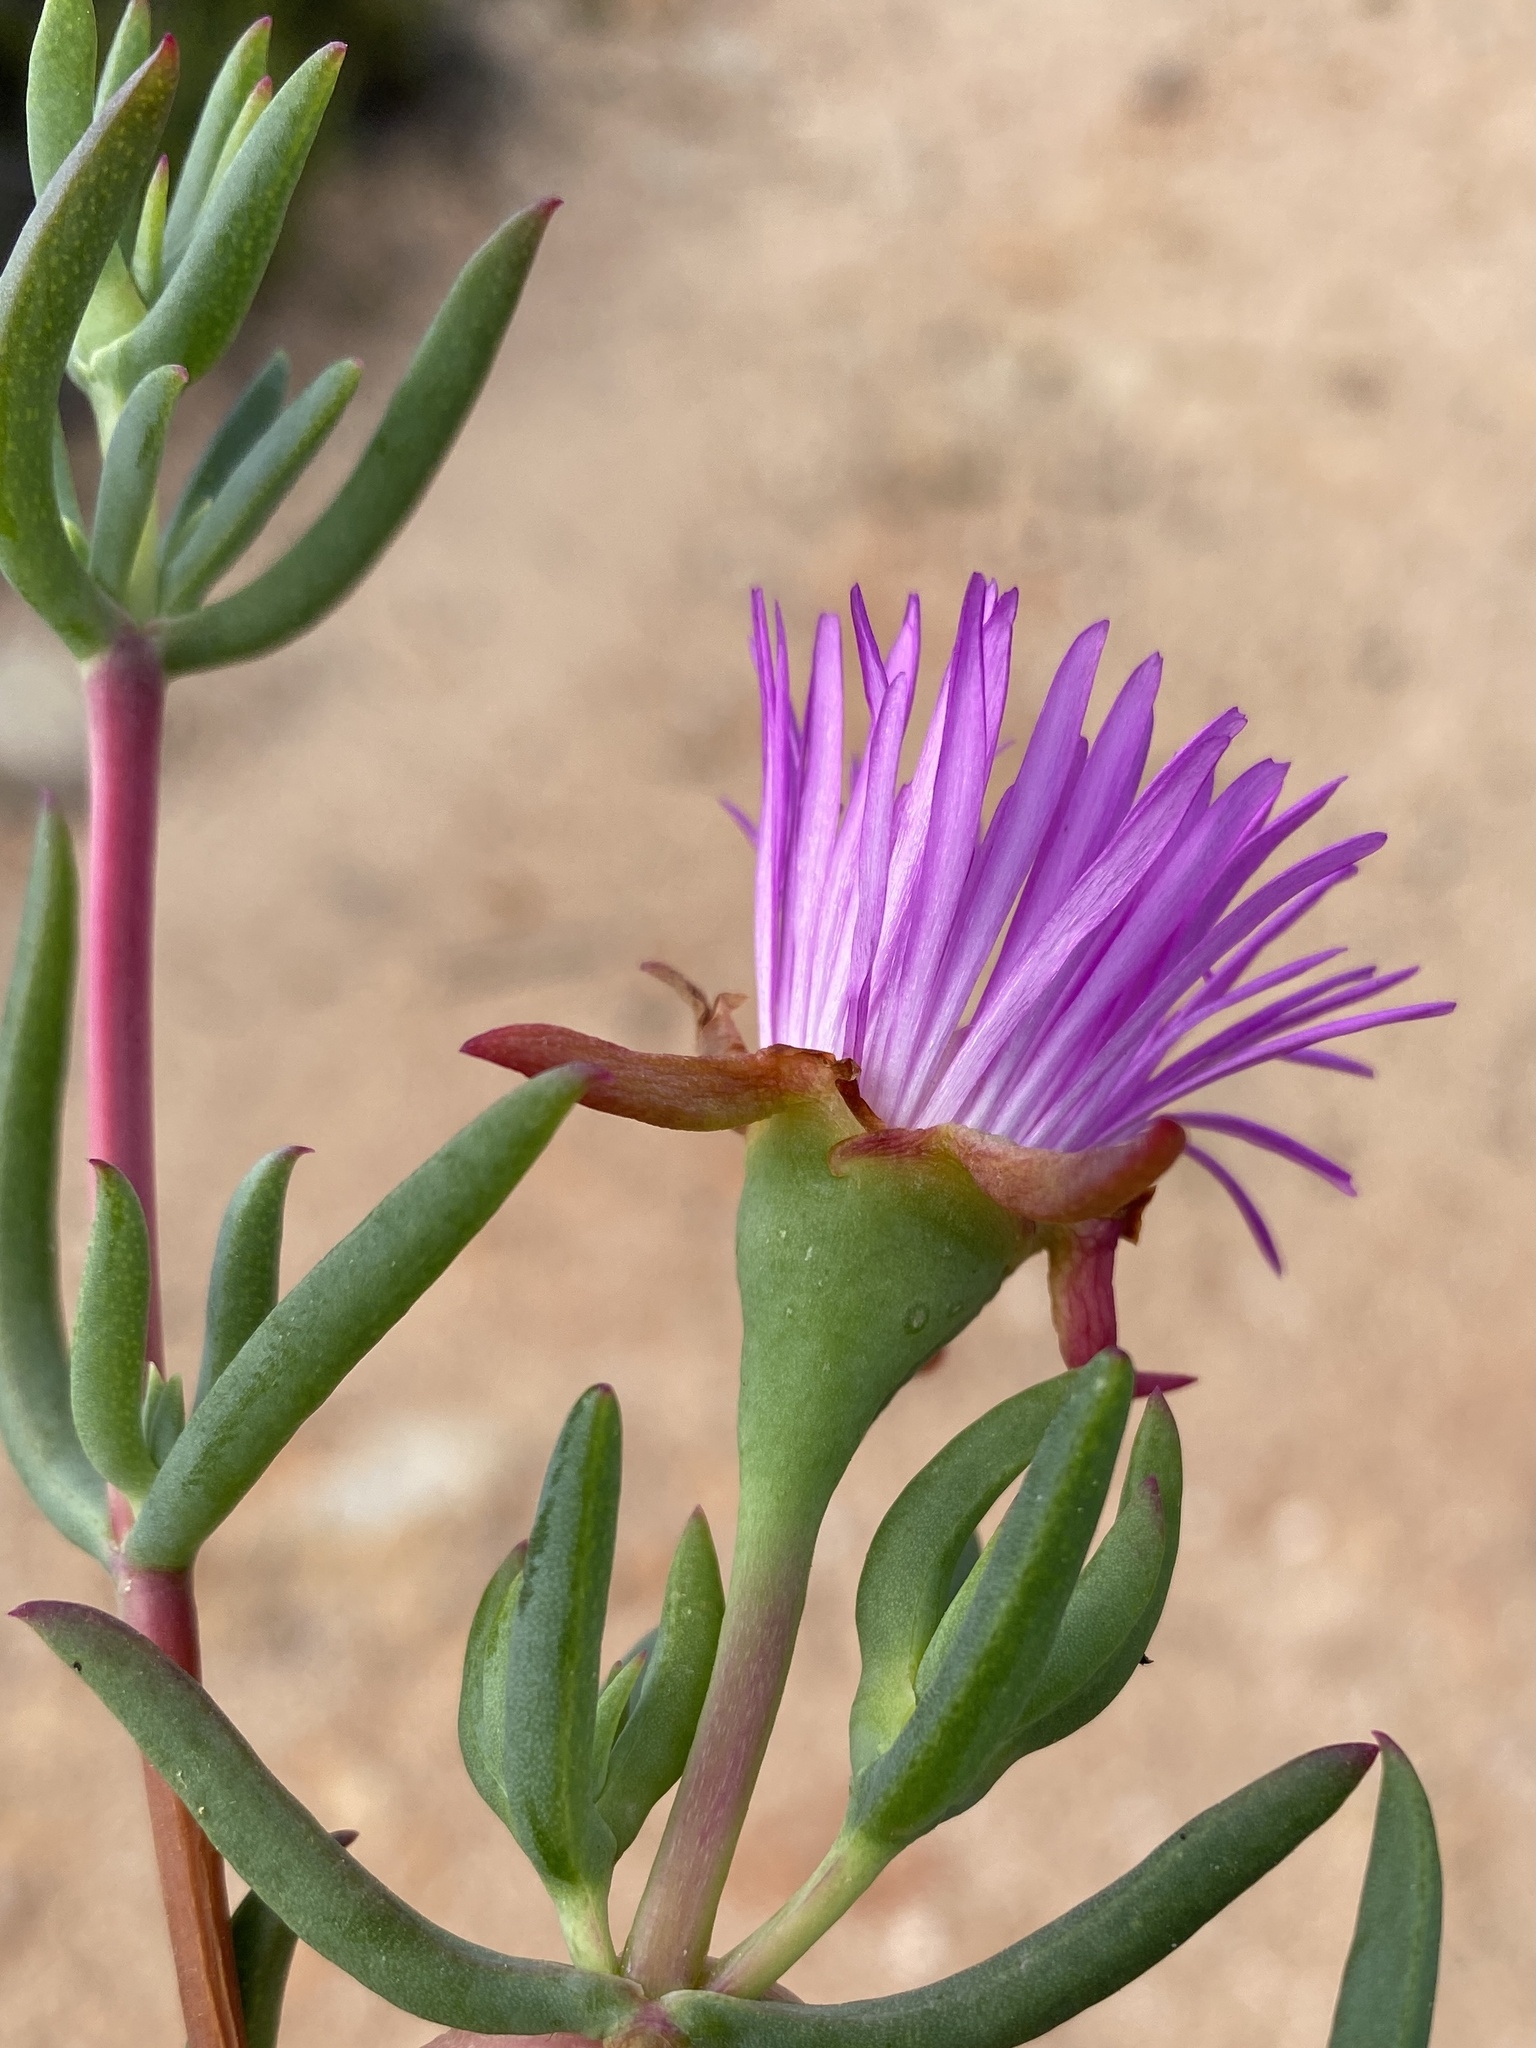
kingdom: Plantae
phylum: Tracheophyta
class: Magnoliopsida
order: Caryophyllales
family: Aizoaceae
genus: Lampranthus
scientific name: Lampranthus stayneri
